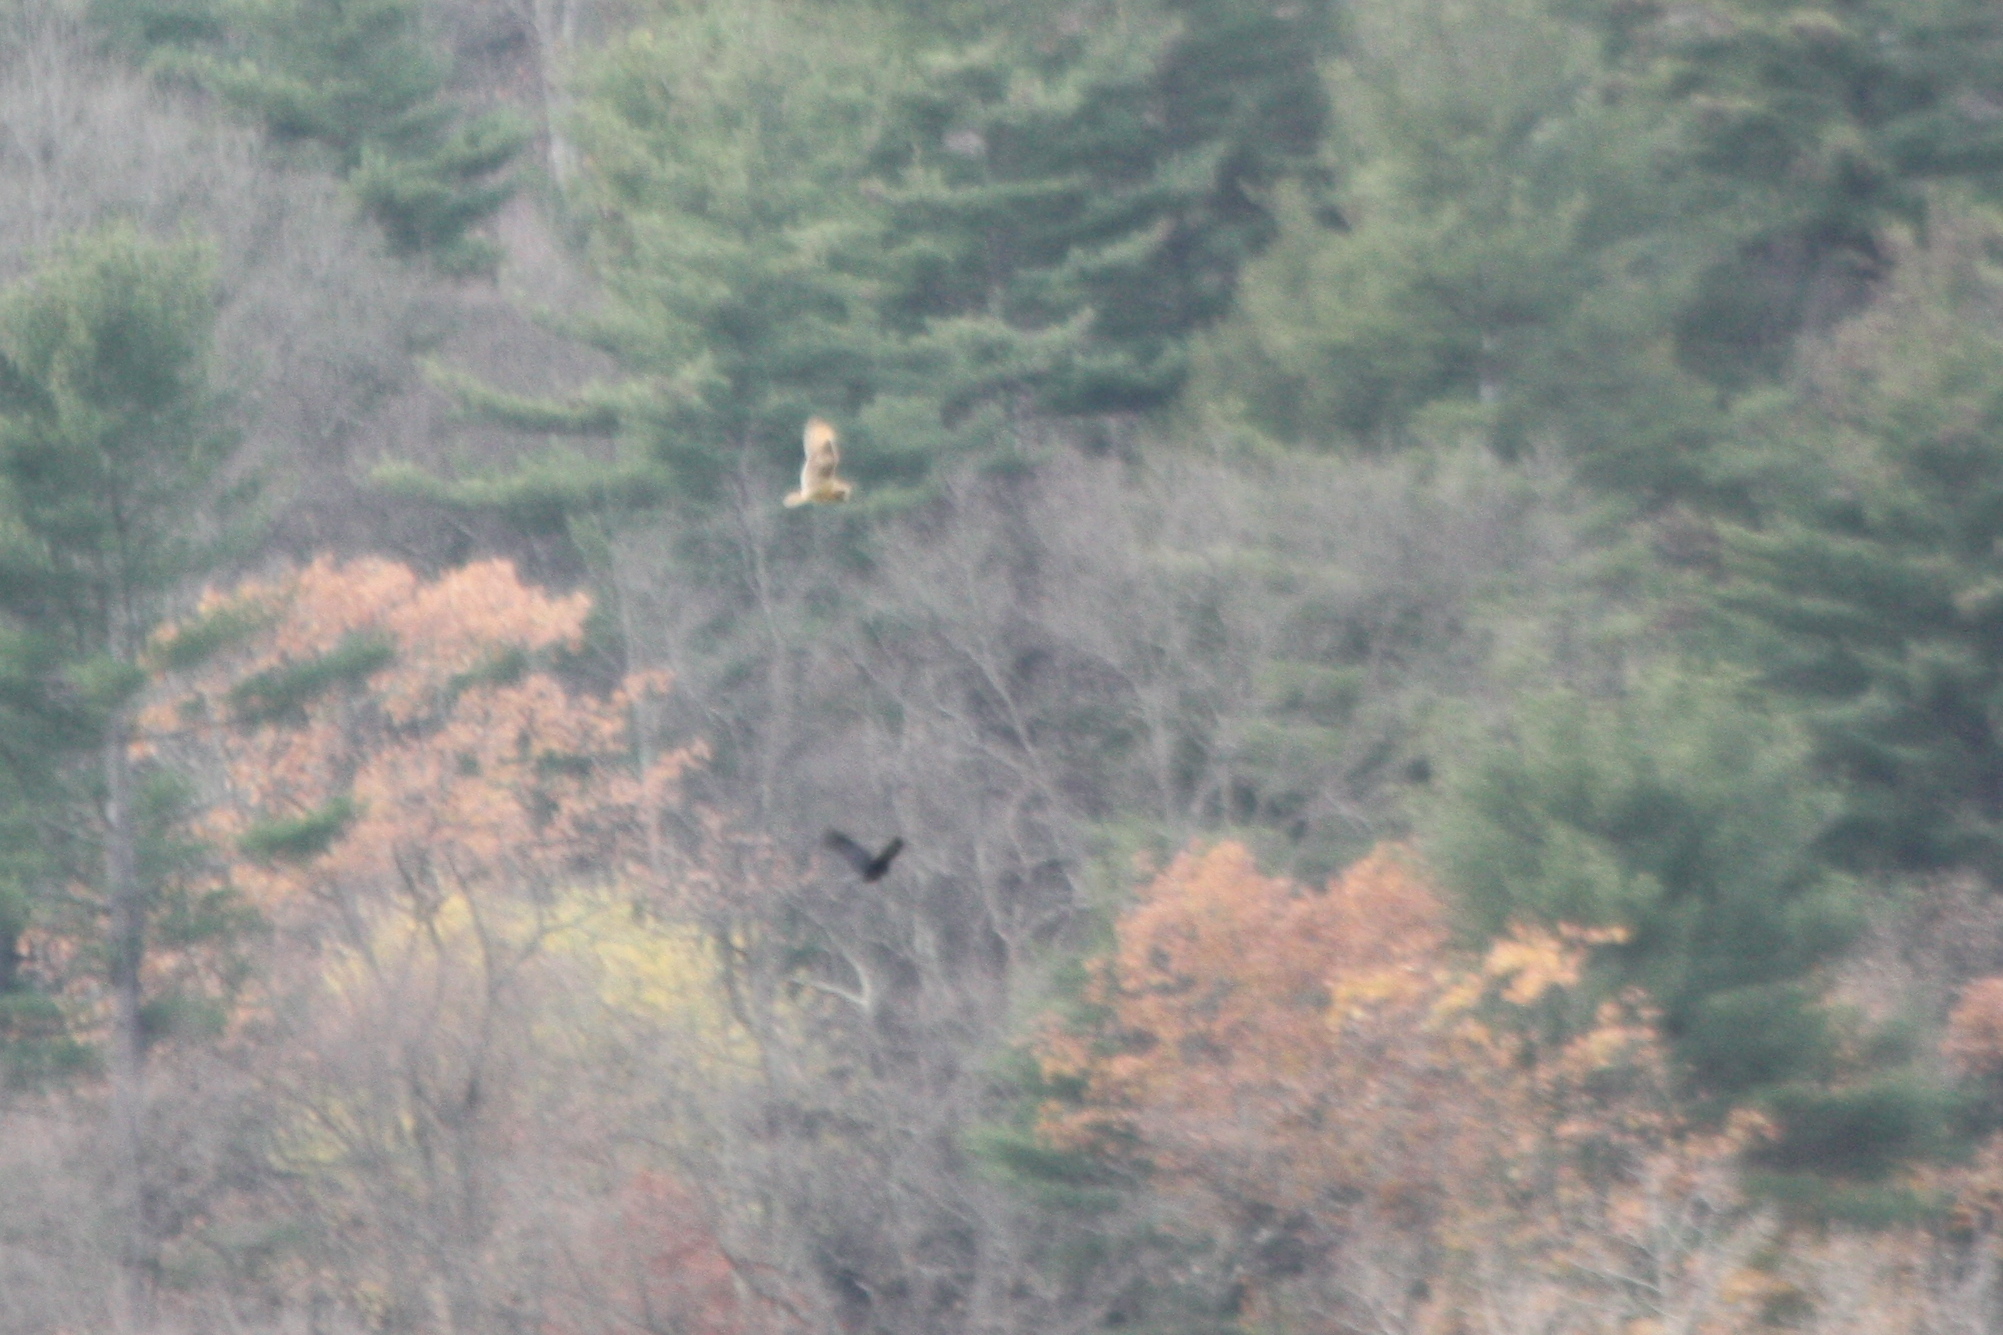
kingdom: Animalia
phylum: Chordata
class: Aves
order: Strigiformes
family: Strigidae
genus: Asio
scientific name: Asio flammeus
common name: Short-eared owl
